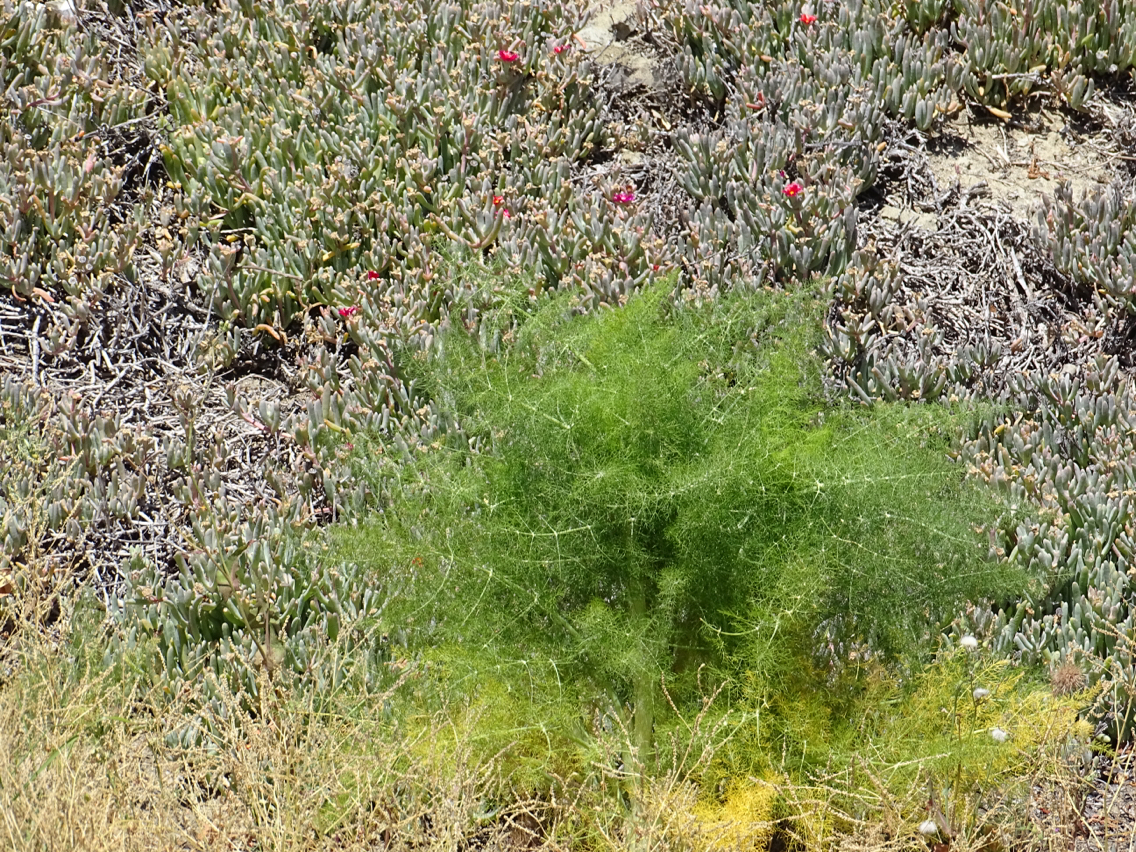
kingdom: Plantae
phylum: Tracheophyta
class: Magnoliopsida
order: Apiales
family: Apiaceae
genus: Foeniculum
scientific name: Foeniculum vulgare
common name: Fennel
